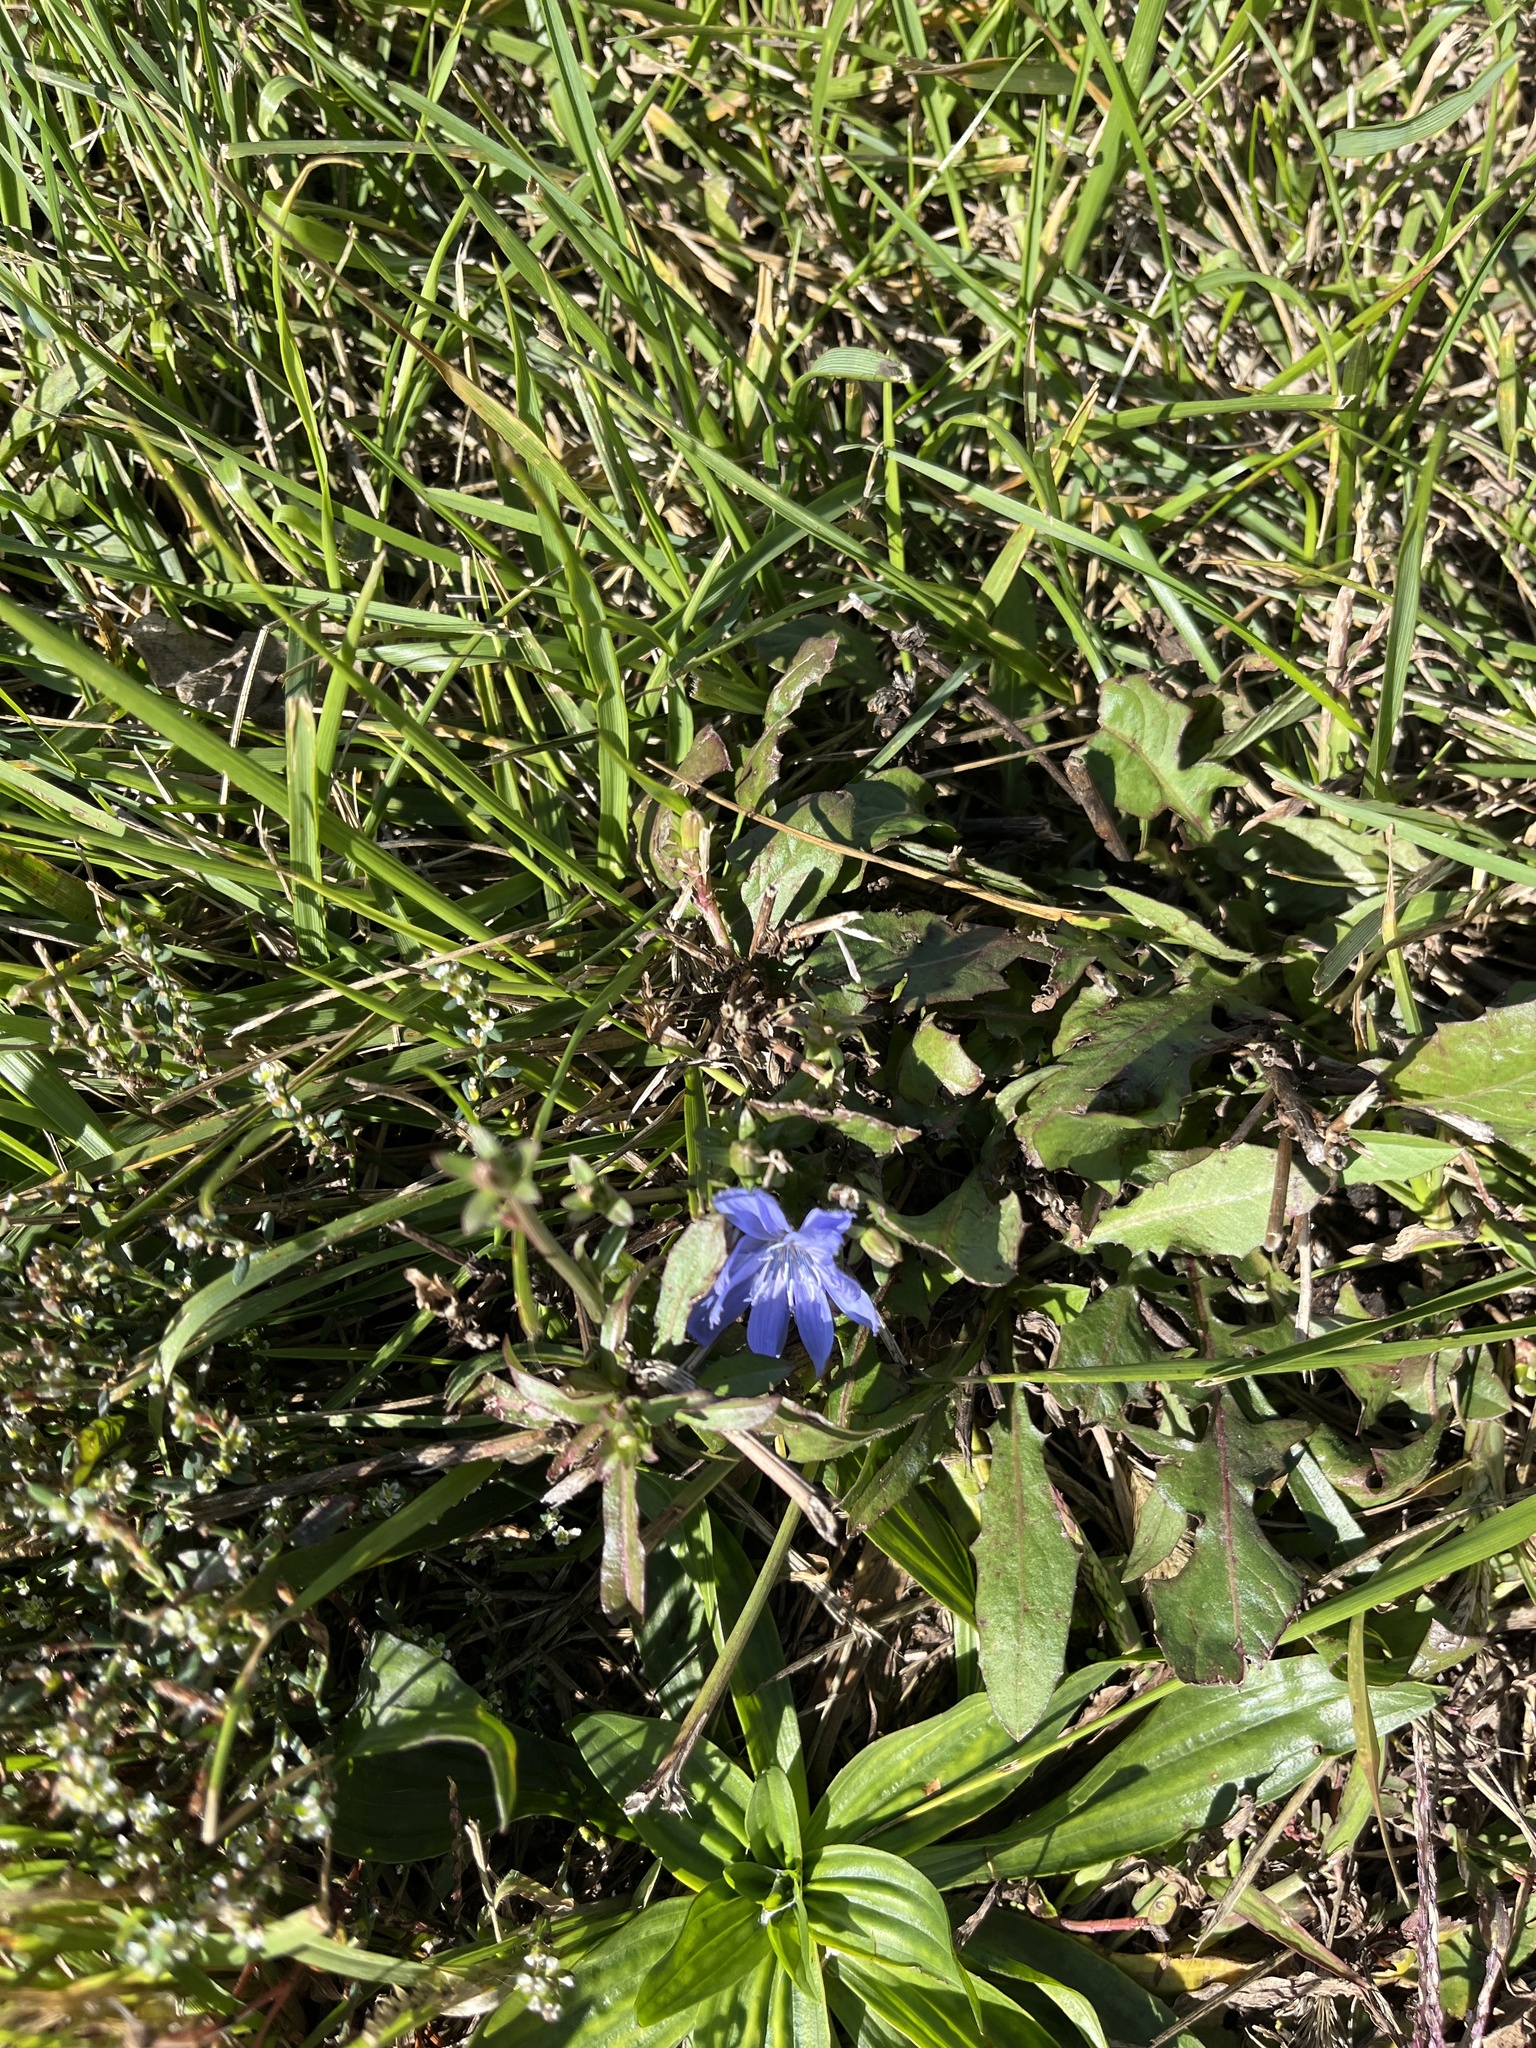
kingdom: Plantae
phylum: Tracheophyta
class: Magnoliopsida
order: Asterales
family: Asteraceae
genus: Cichorium
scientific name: Cichorium intybus
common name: Chicory
